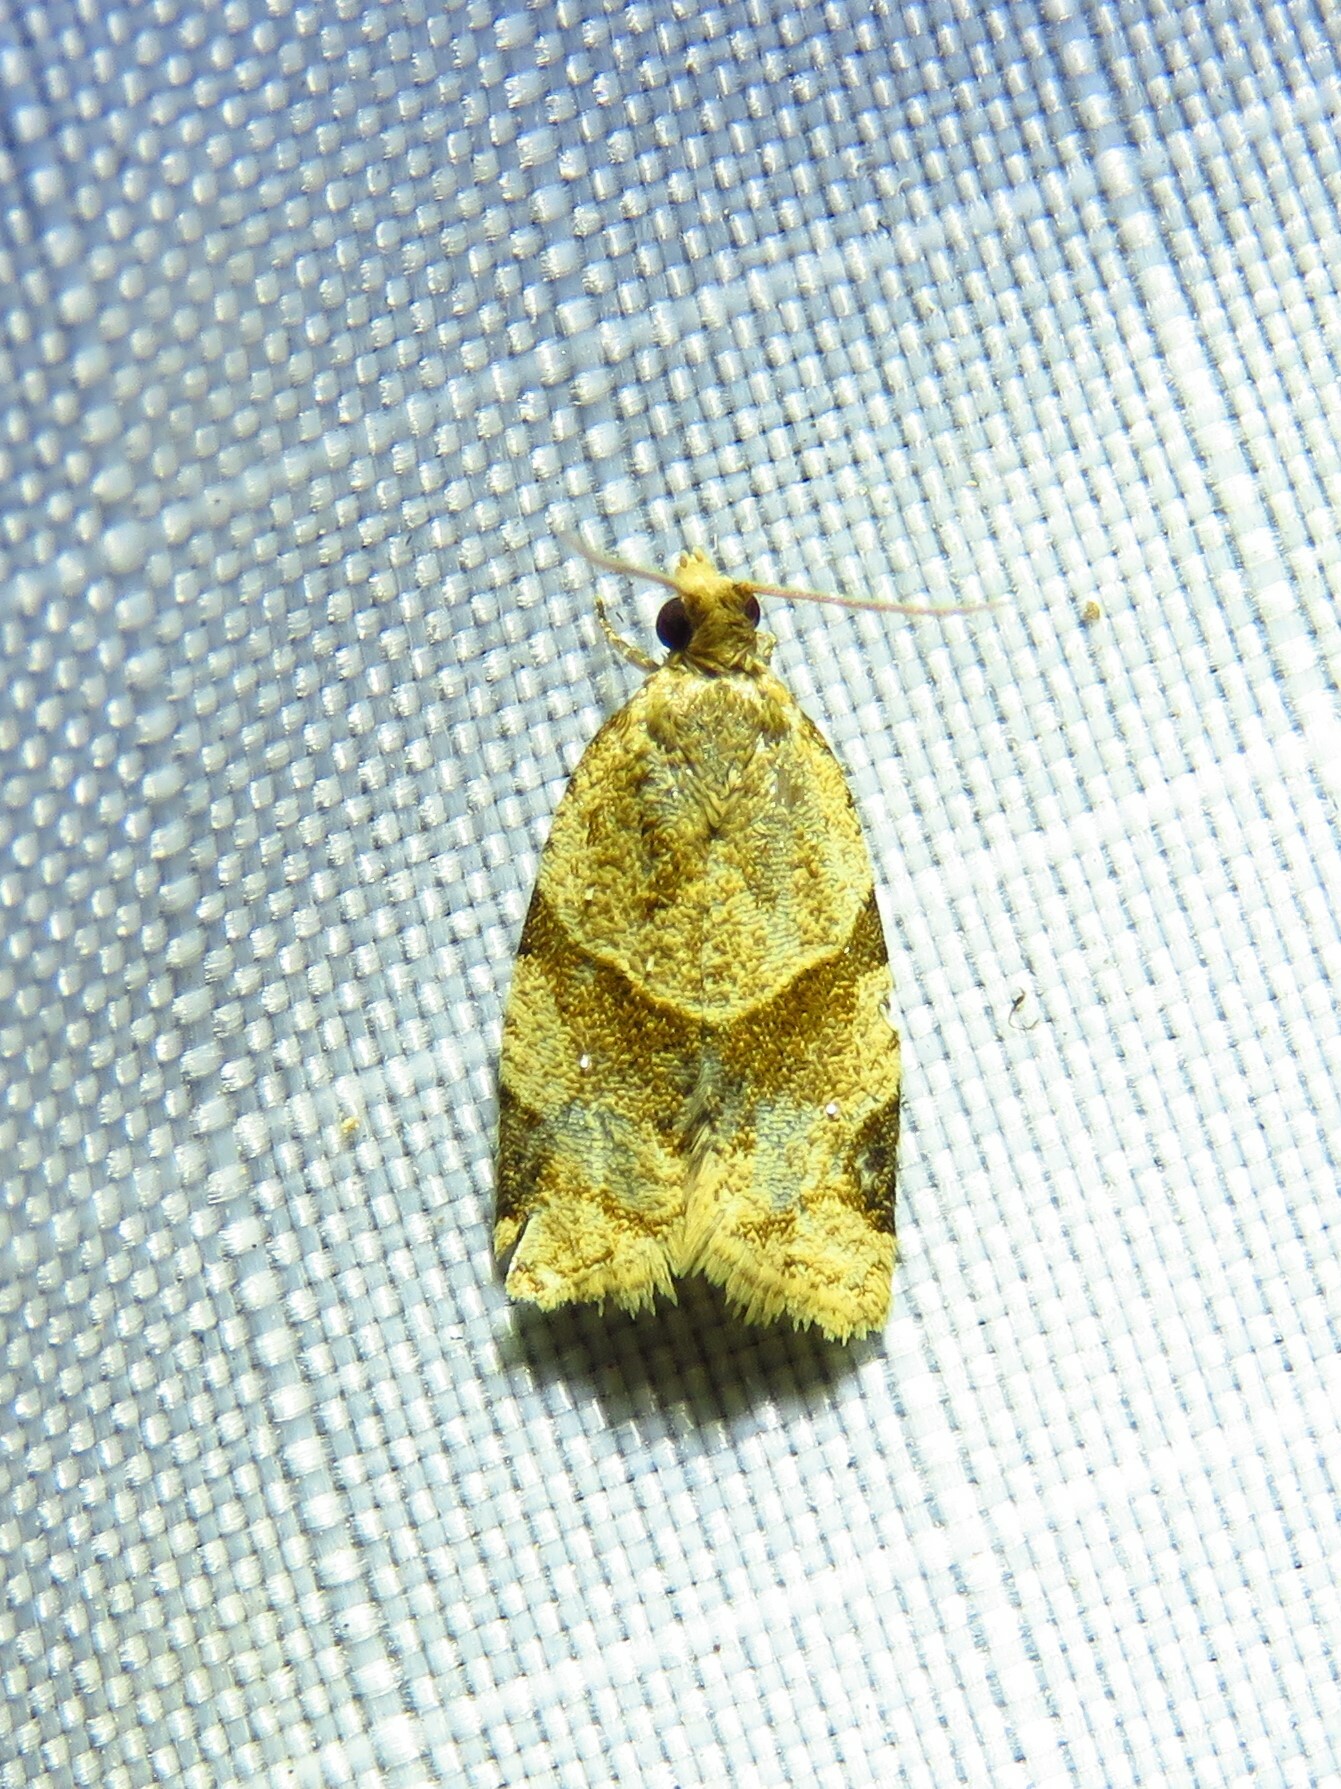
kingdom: Animalia
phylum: Arthropoda
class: Insecta
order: Lepidoptera
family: Tortricidae
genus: Clepsis
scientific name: Clepsis peritana
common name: Garden tortrix
